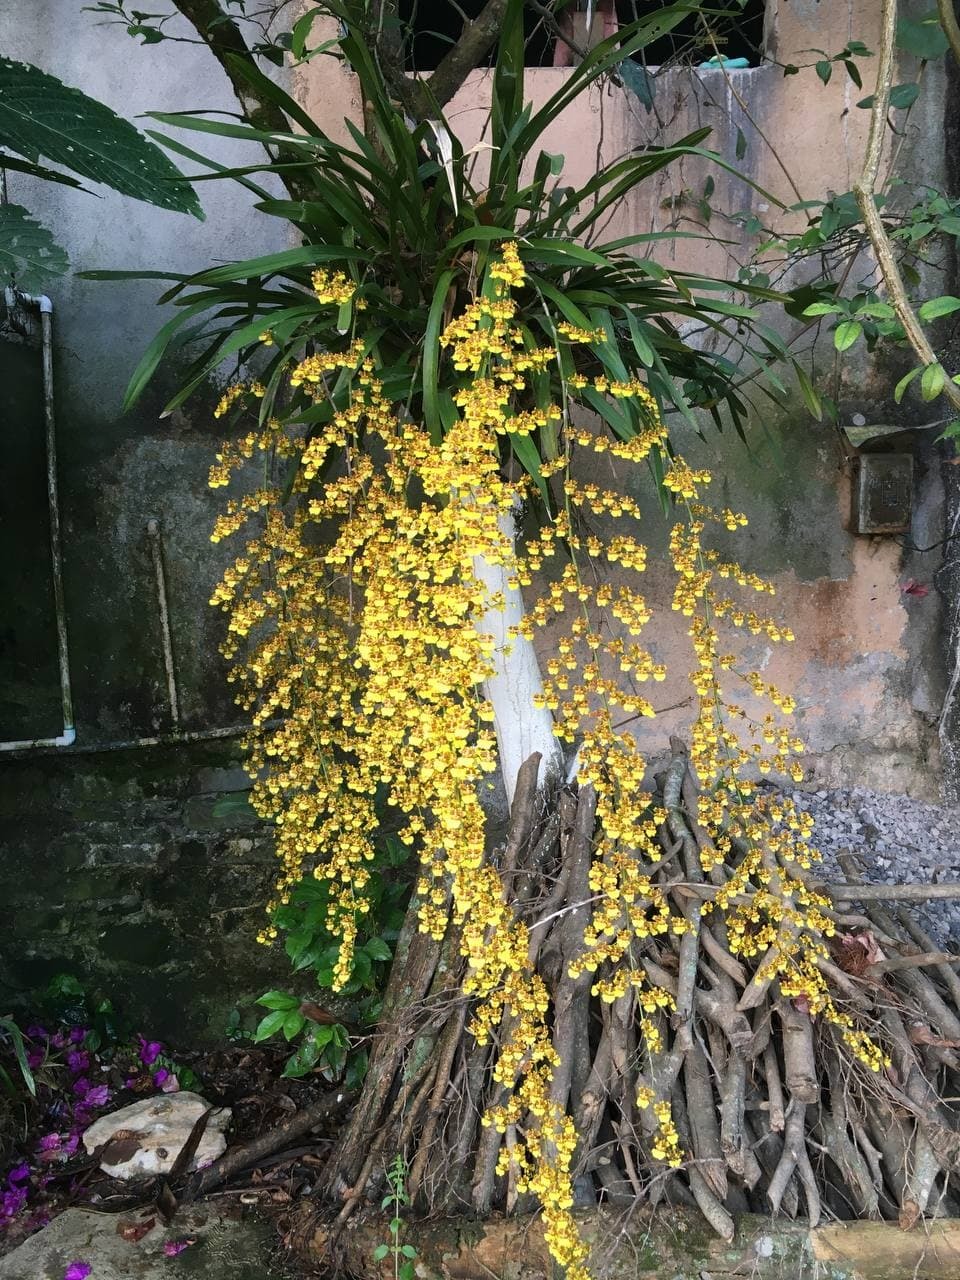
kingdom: Plantae
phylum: Tracheophyta
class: Liliopsida
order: Asparagales
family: Orchidaceae
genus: Oncidium
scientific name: Oncidium sphacelatum
